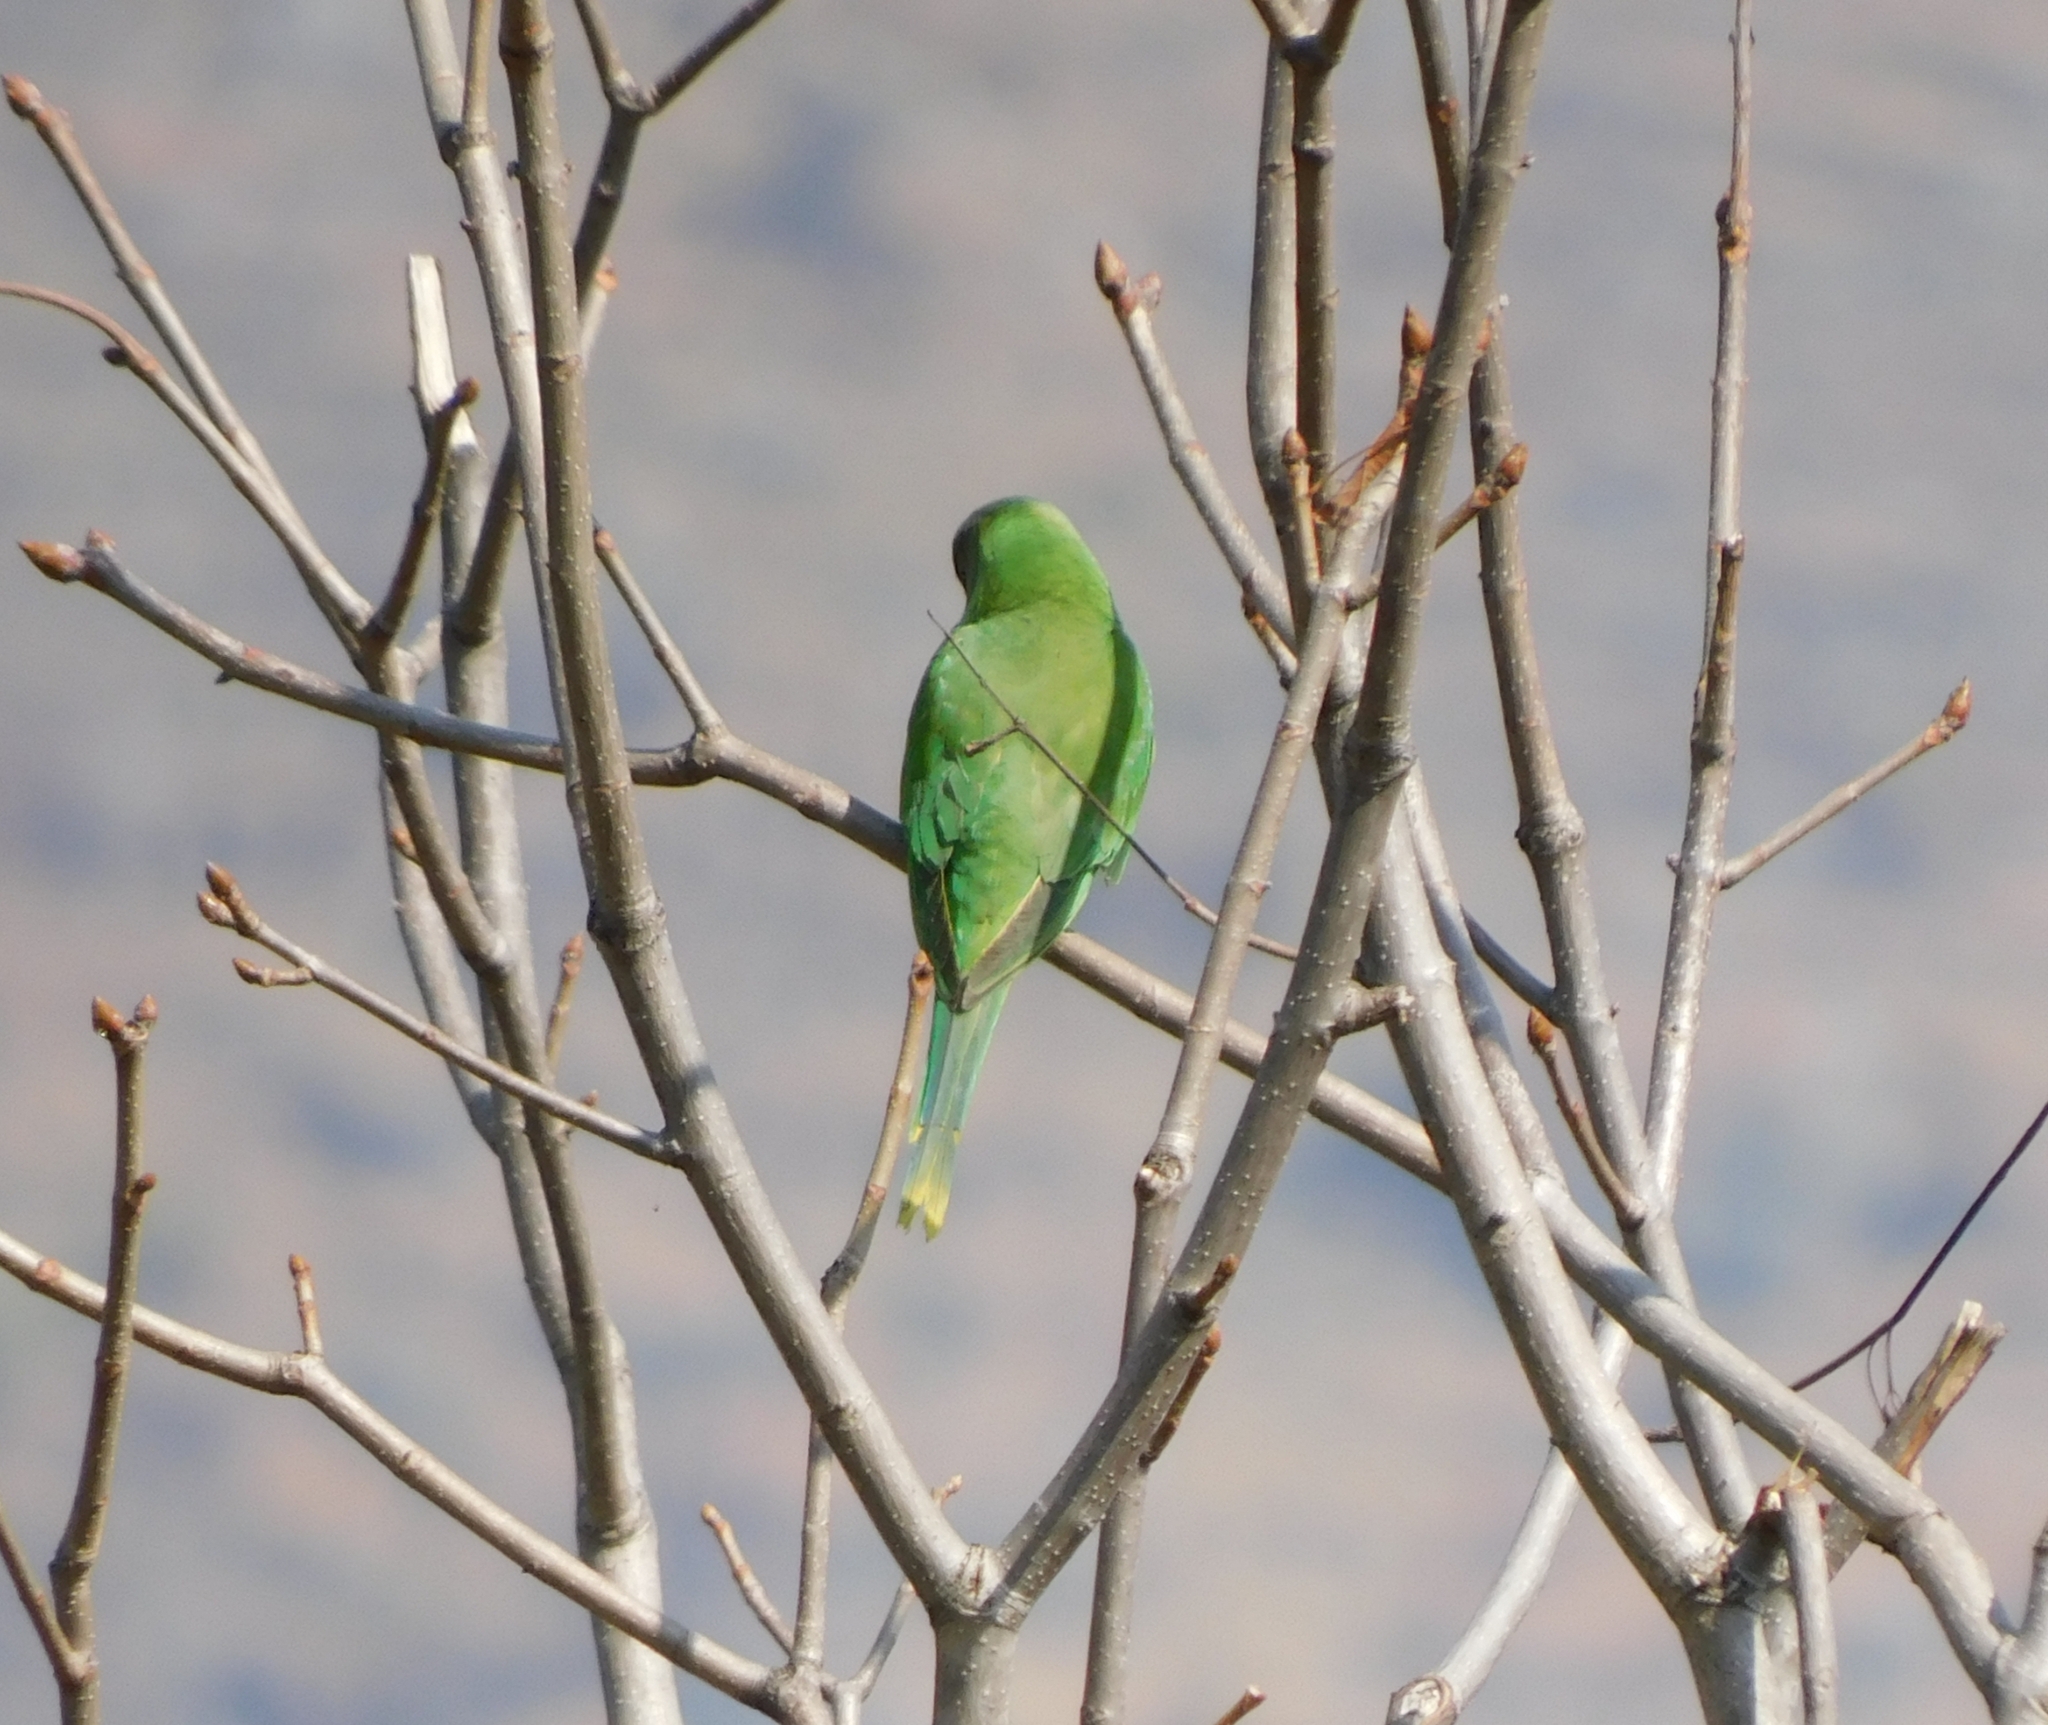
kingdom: Animalia
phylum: Chordata
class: Aves
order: Psittaciformes
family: Psittacidae
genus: Psittacula
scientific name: Psittacula himalayana
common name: Slaty-headed parakeet
